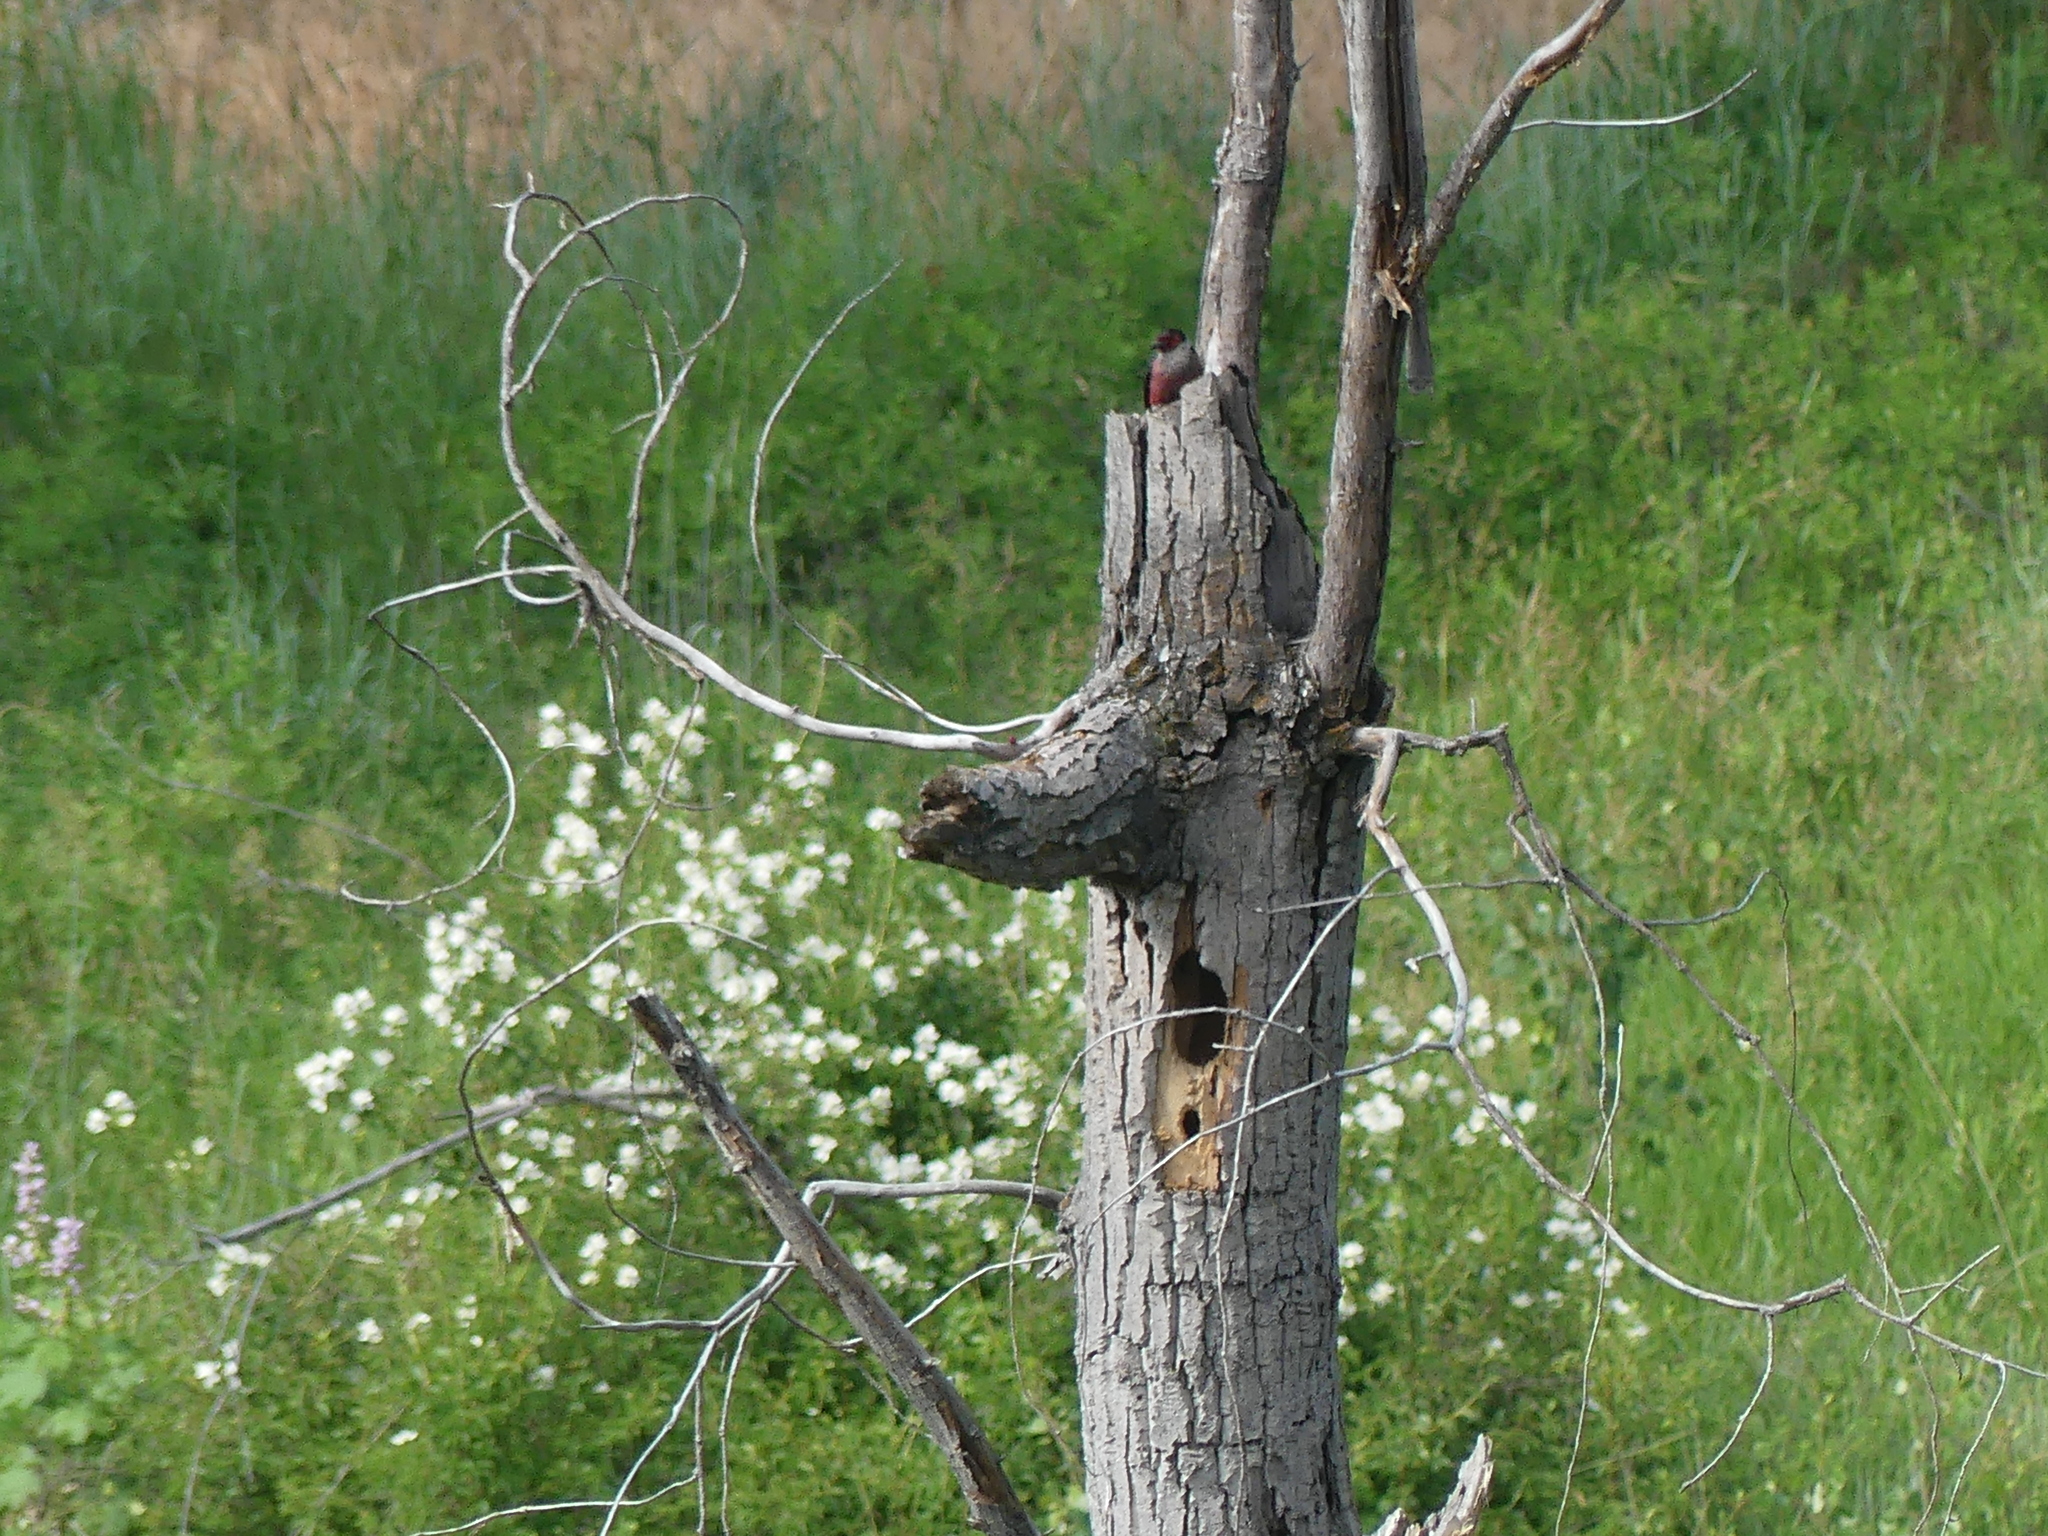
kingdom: Animalia
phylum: Chordata
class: Aves
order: Piciformes
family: Picidae
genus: Melanerpes
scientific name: Melanerpes lewis
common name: Lewis's woodpecker
